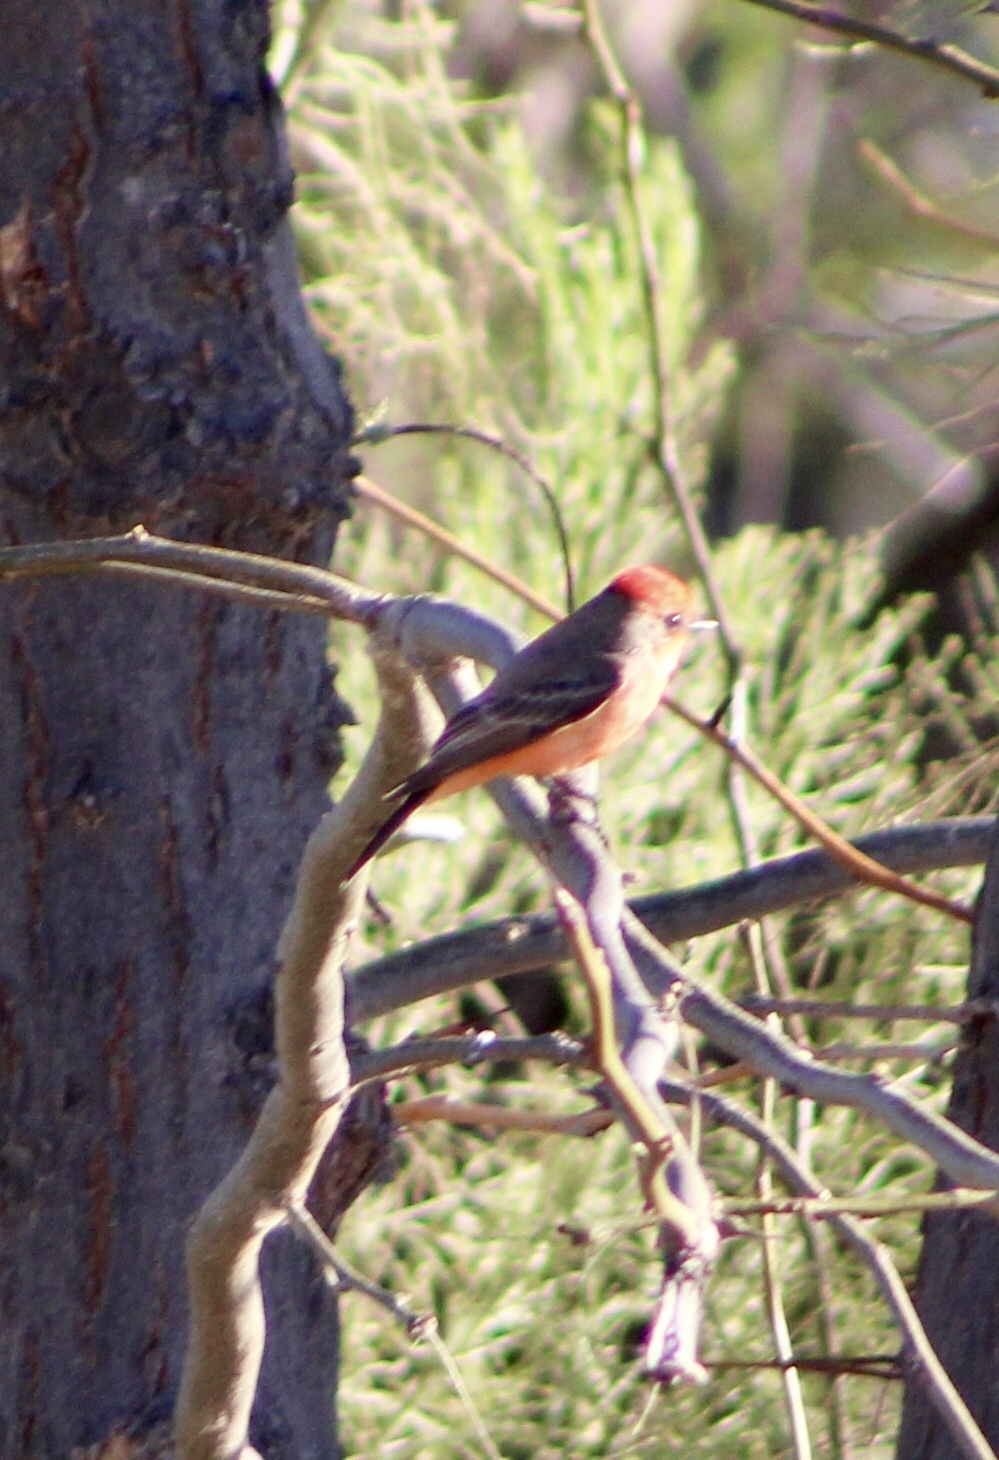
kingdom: Animalia
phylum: Chordata
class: Aves
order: Passeriformes
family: Tyrannidae
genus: Pyrocephalus
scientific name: Pyrocephalus rubinus
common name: Vermilion flycatcher
